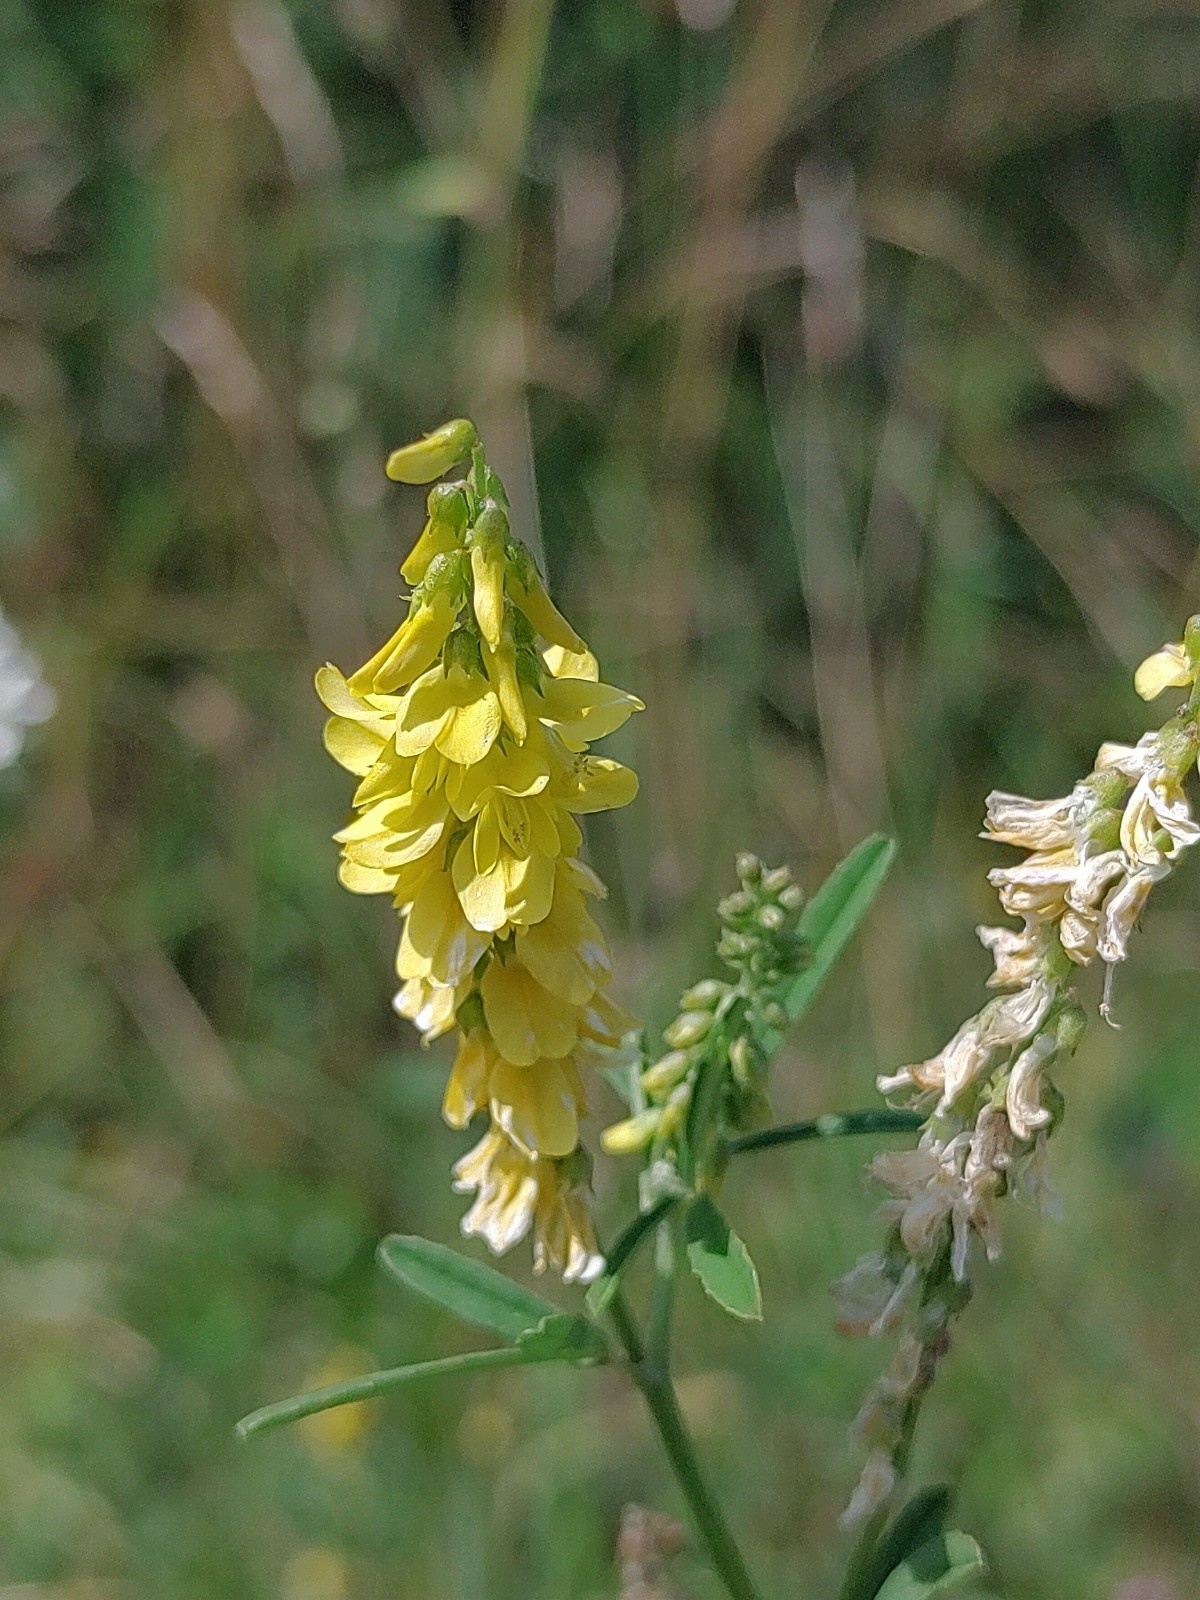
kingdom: Plantae
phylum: Tracheophyta
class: Magnoliopsida
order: Fabales
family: Fabaceae
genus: Melilotus
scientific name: Melilotus officinalis
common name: Sweetclover
